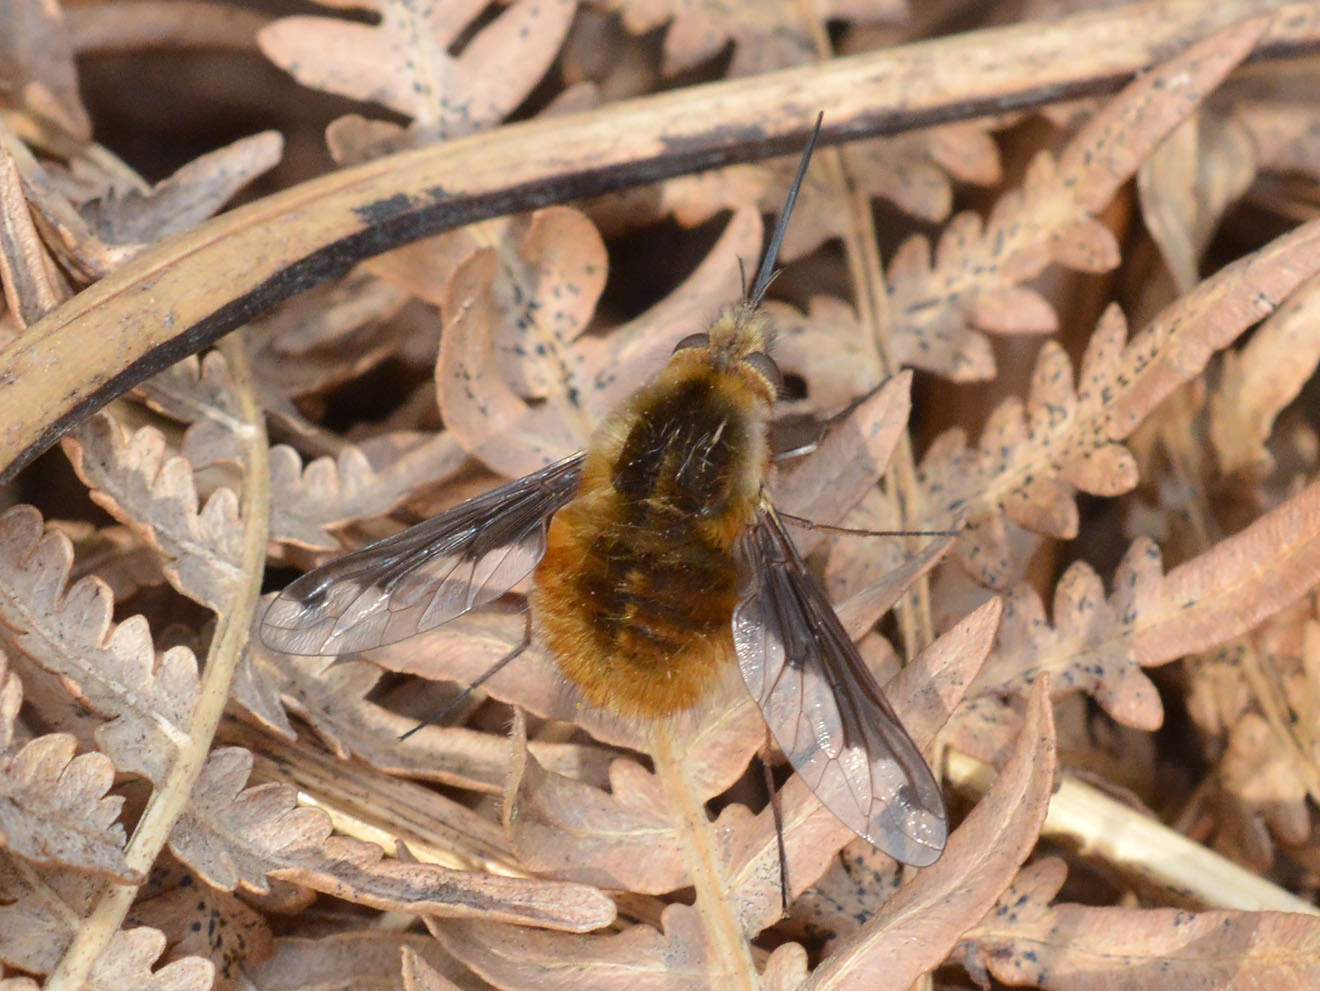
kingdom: Animalia
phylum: Arthropoda
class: Insecta
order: Diptera
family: Bombyliidae
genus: Bombylius
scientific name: Bombylius major
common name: Bee fly
